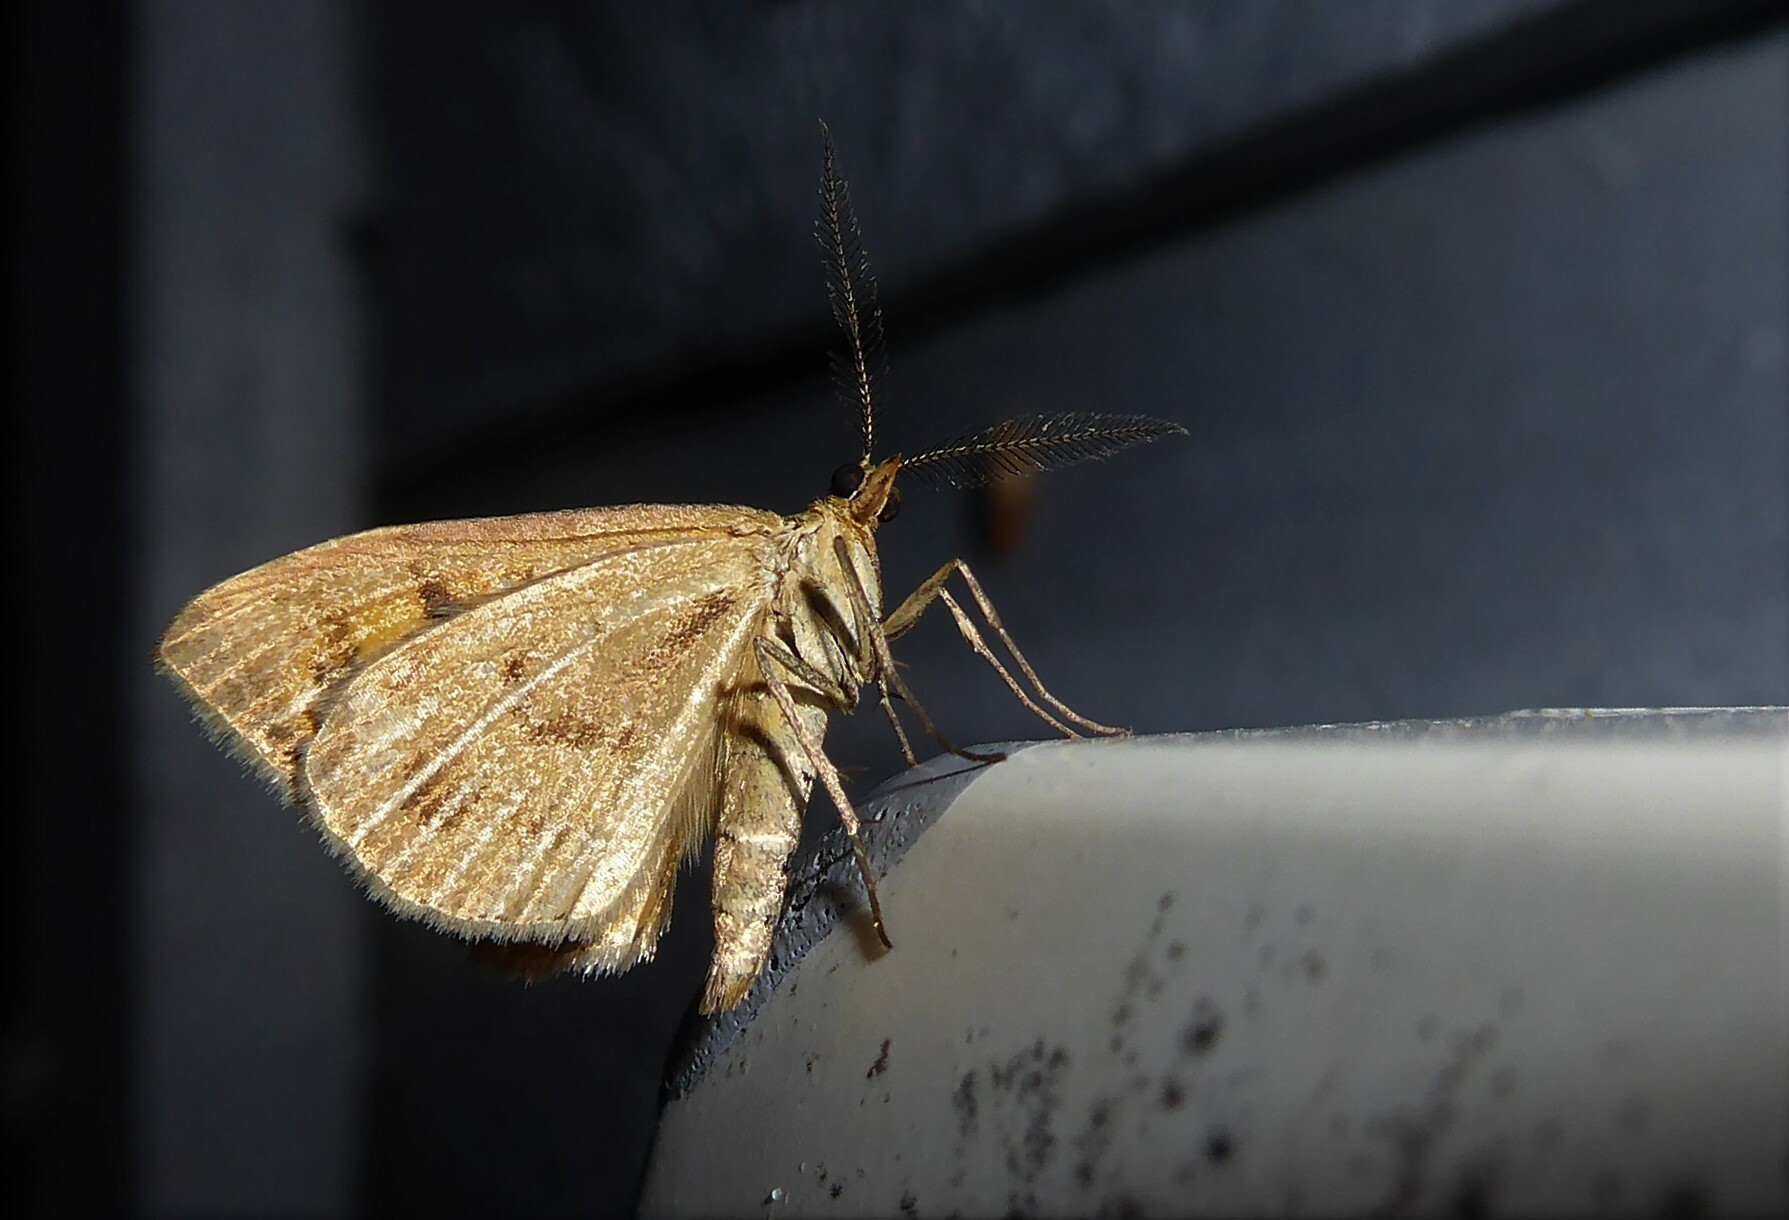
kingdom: Animalia
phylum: Arthropoda
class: Insecta
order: Lepidoptera
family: Geometridae
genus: Asaphodes
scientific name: Asaphodes abrogata
